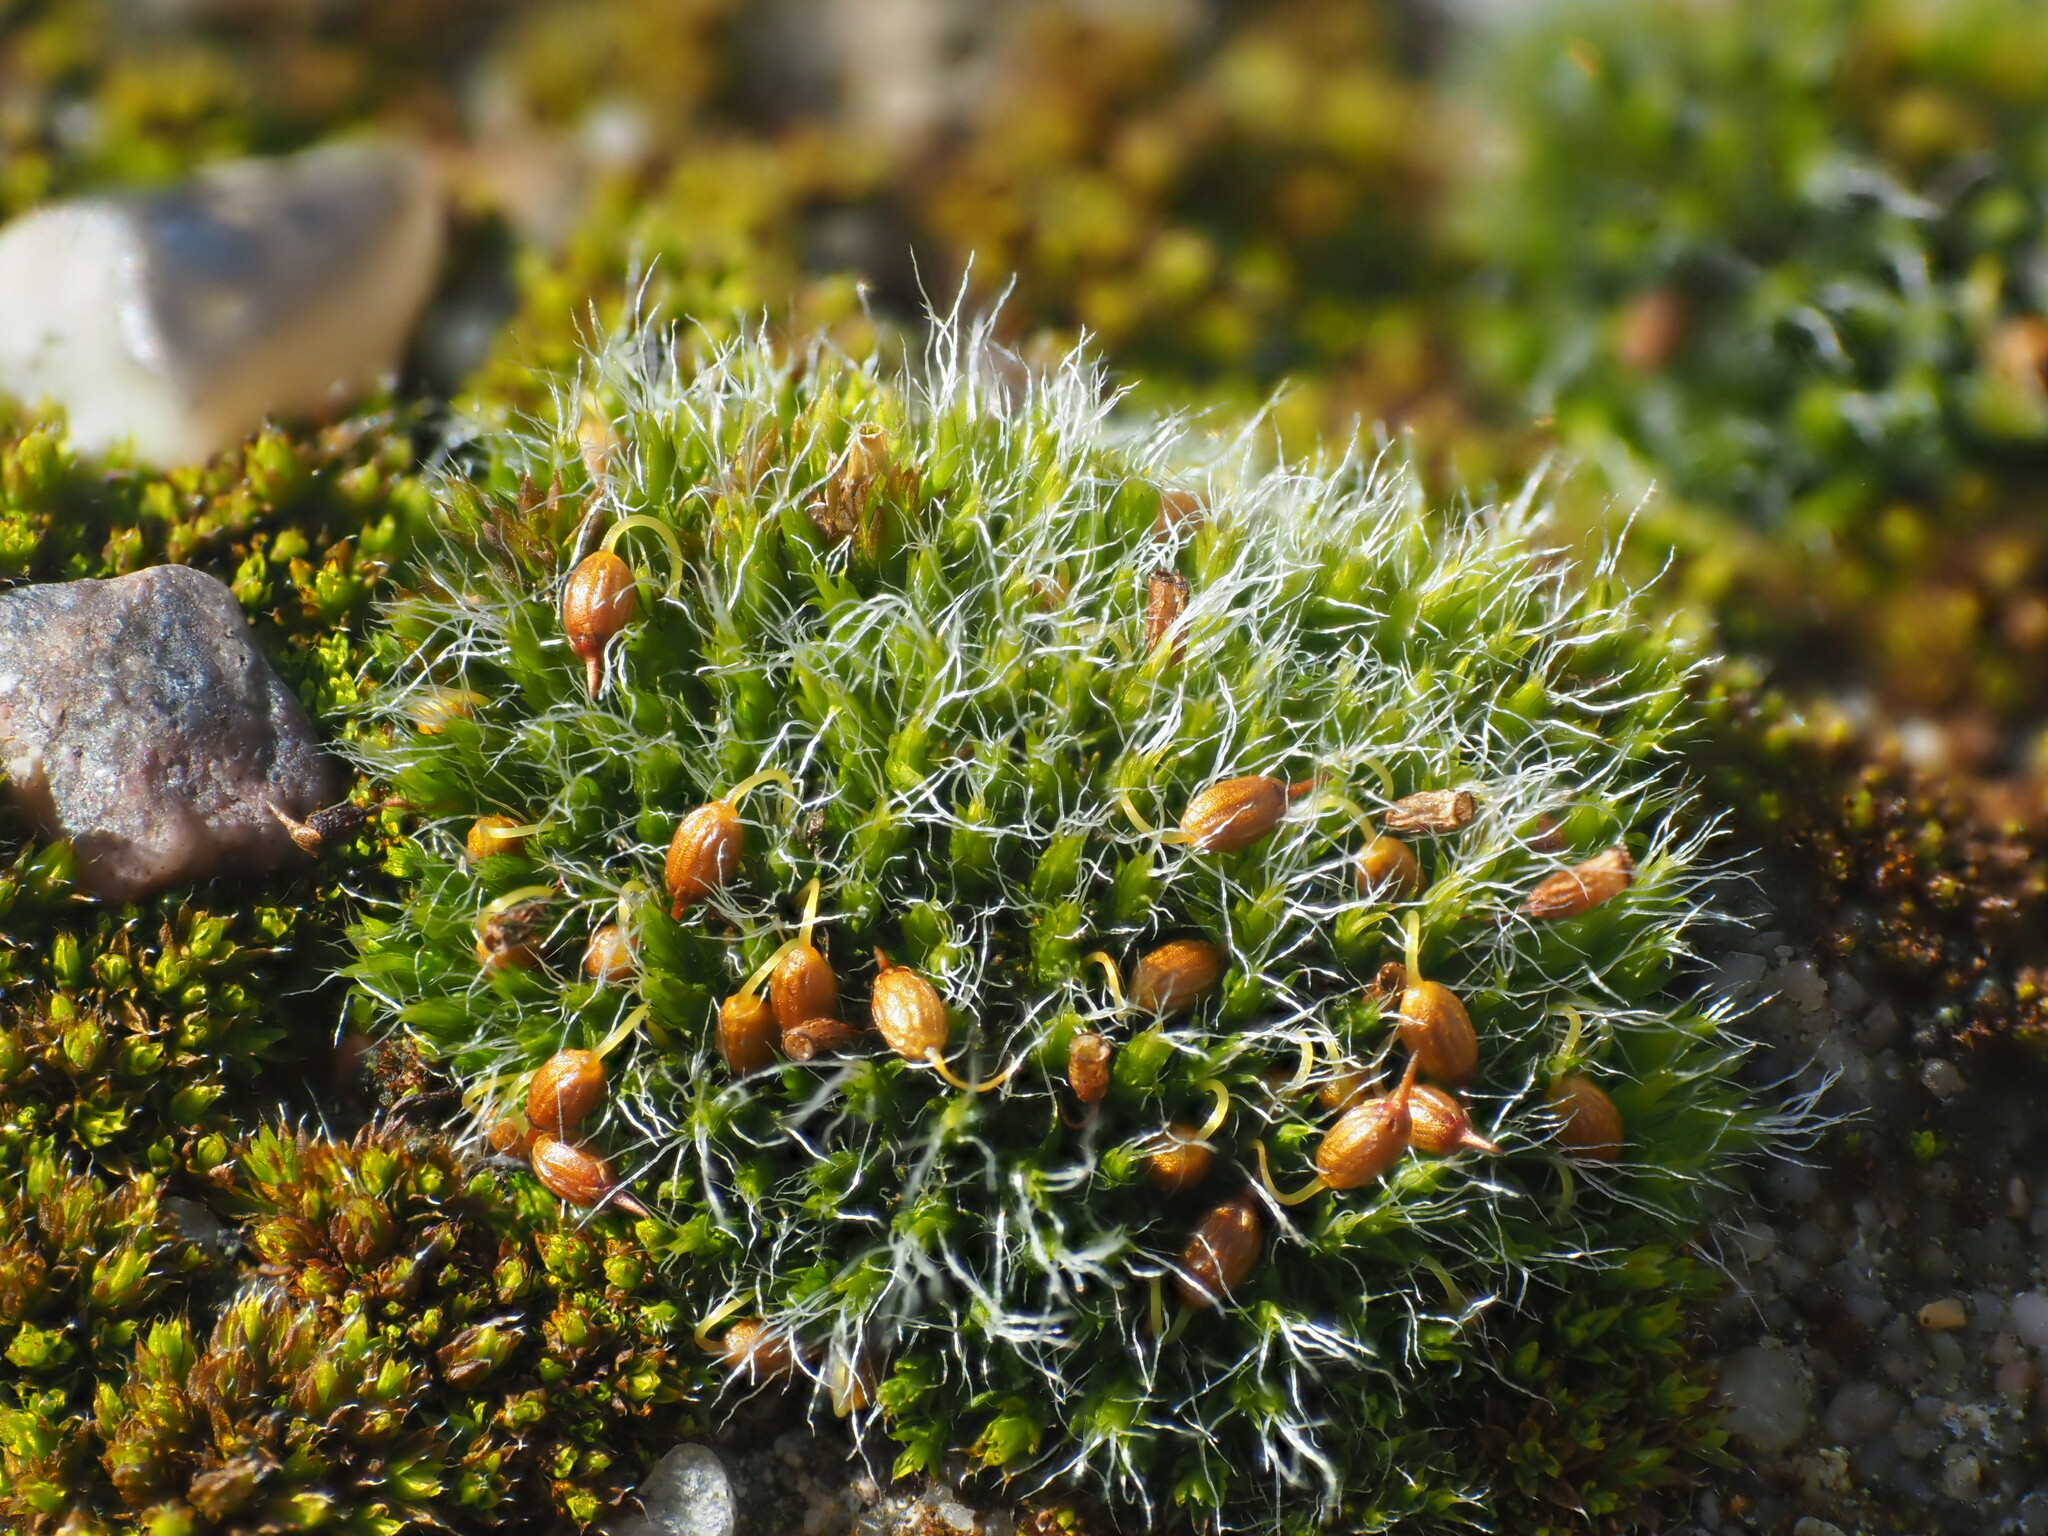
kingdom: Plantae
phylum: Bryophyta
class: Bryopsida
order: Grimmiales
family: Grimmiaceae
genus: Grimmia
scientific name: Grimmia pulvinata
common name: Grey-cushioned grimmia
